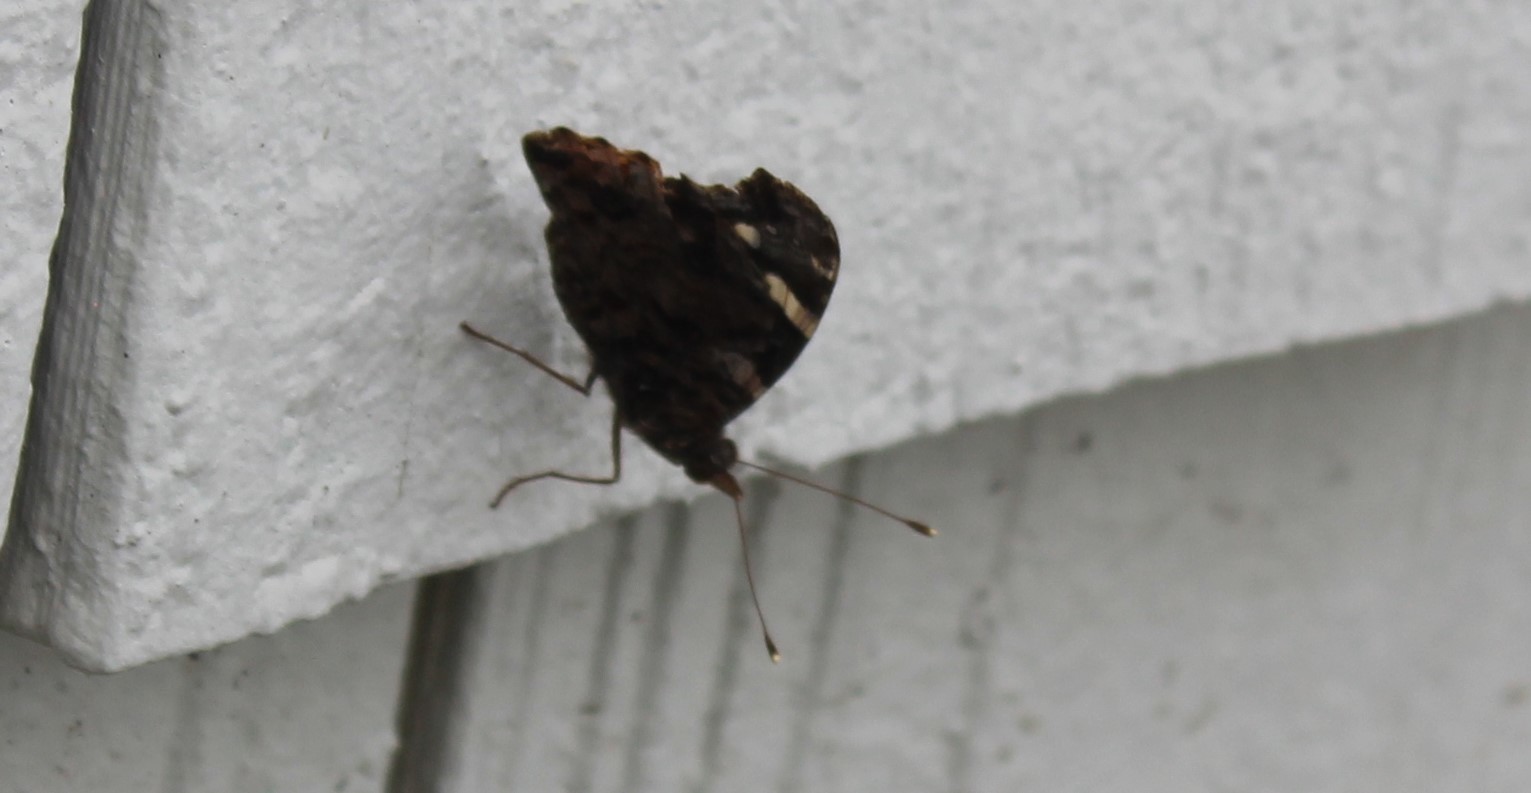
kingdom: Animalia
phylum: Arthropoda
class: Insecta
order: Lepidoptera
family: Nymphalidae
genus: Vanessa
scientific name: Vanessa atalanta
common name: Red admiral
